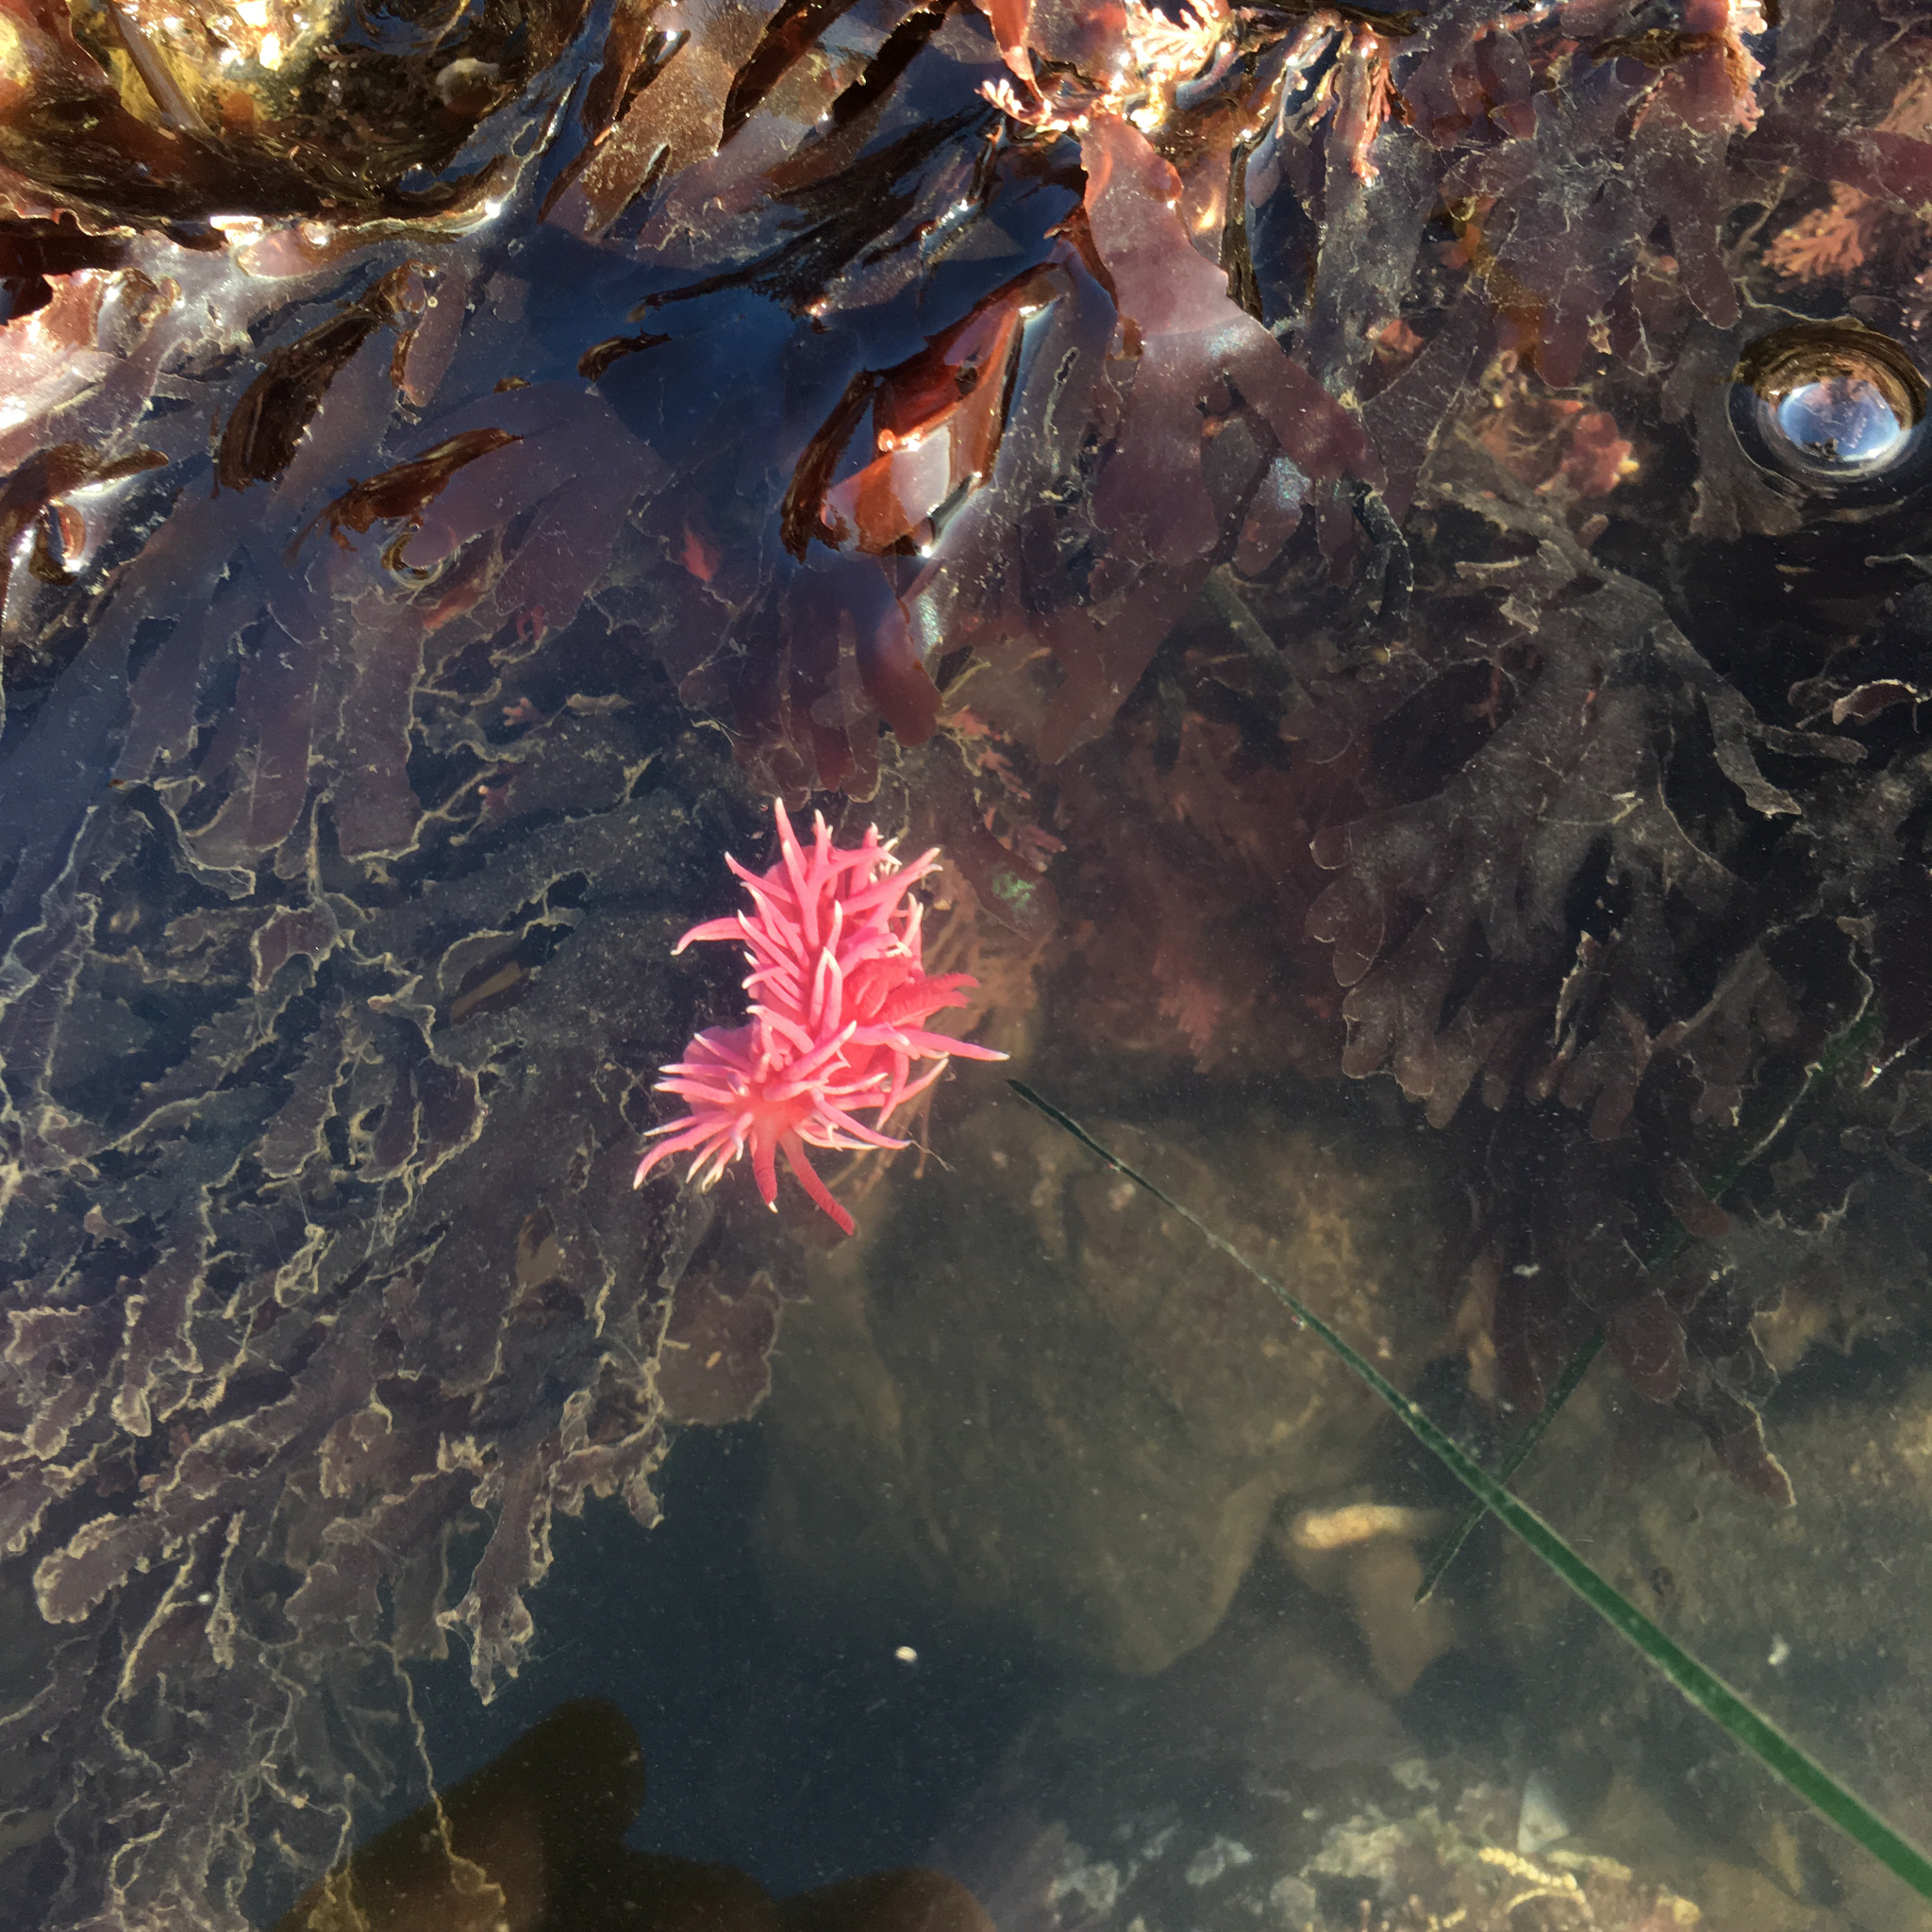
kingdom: Animalia
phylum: Mollusca
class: Gastropoda
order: Nudibranchia
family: Goniodorididae
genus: Okenia
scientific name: Okenia
